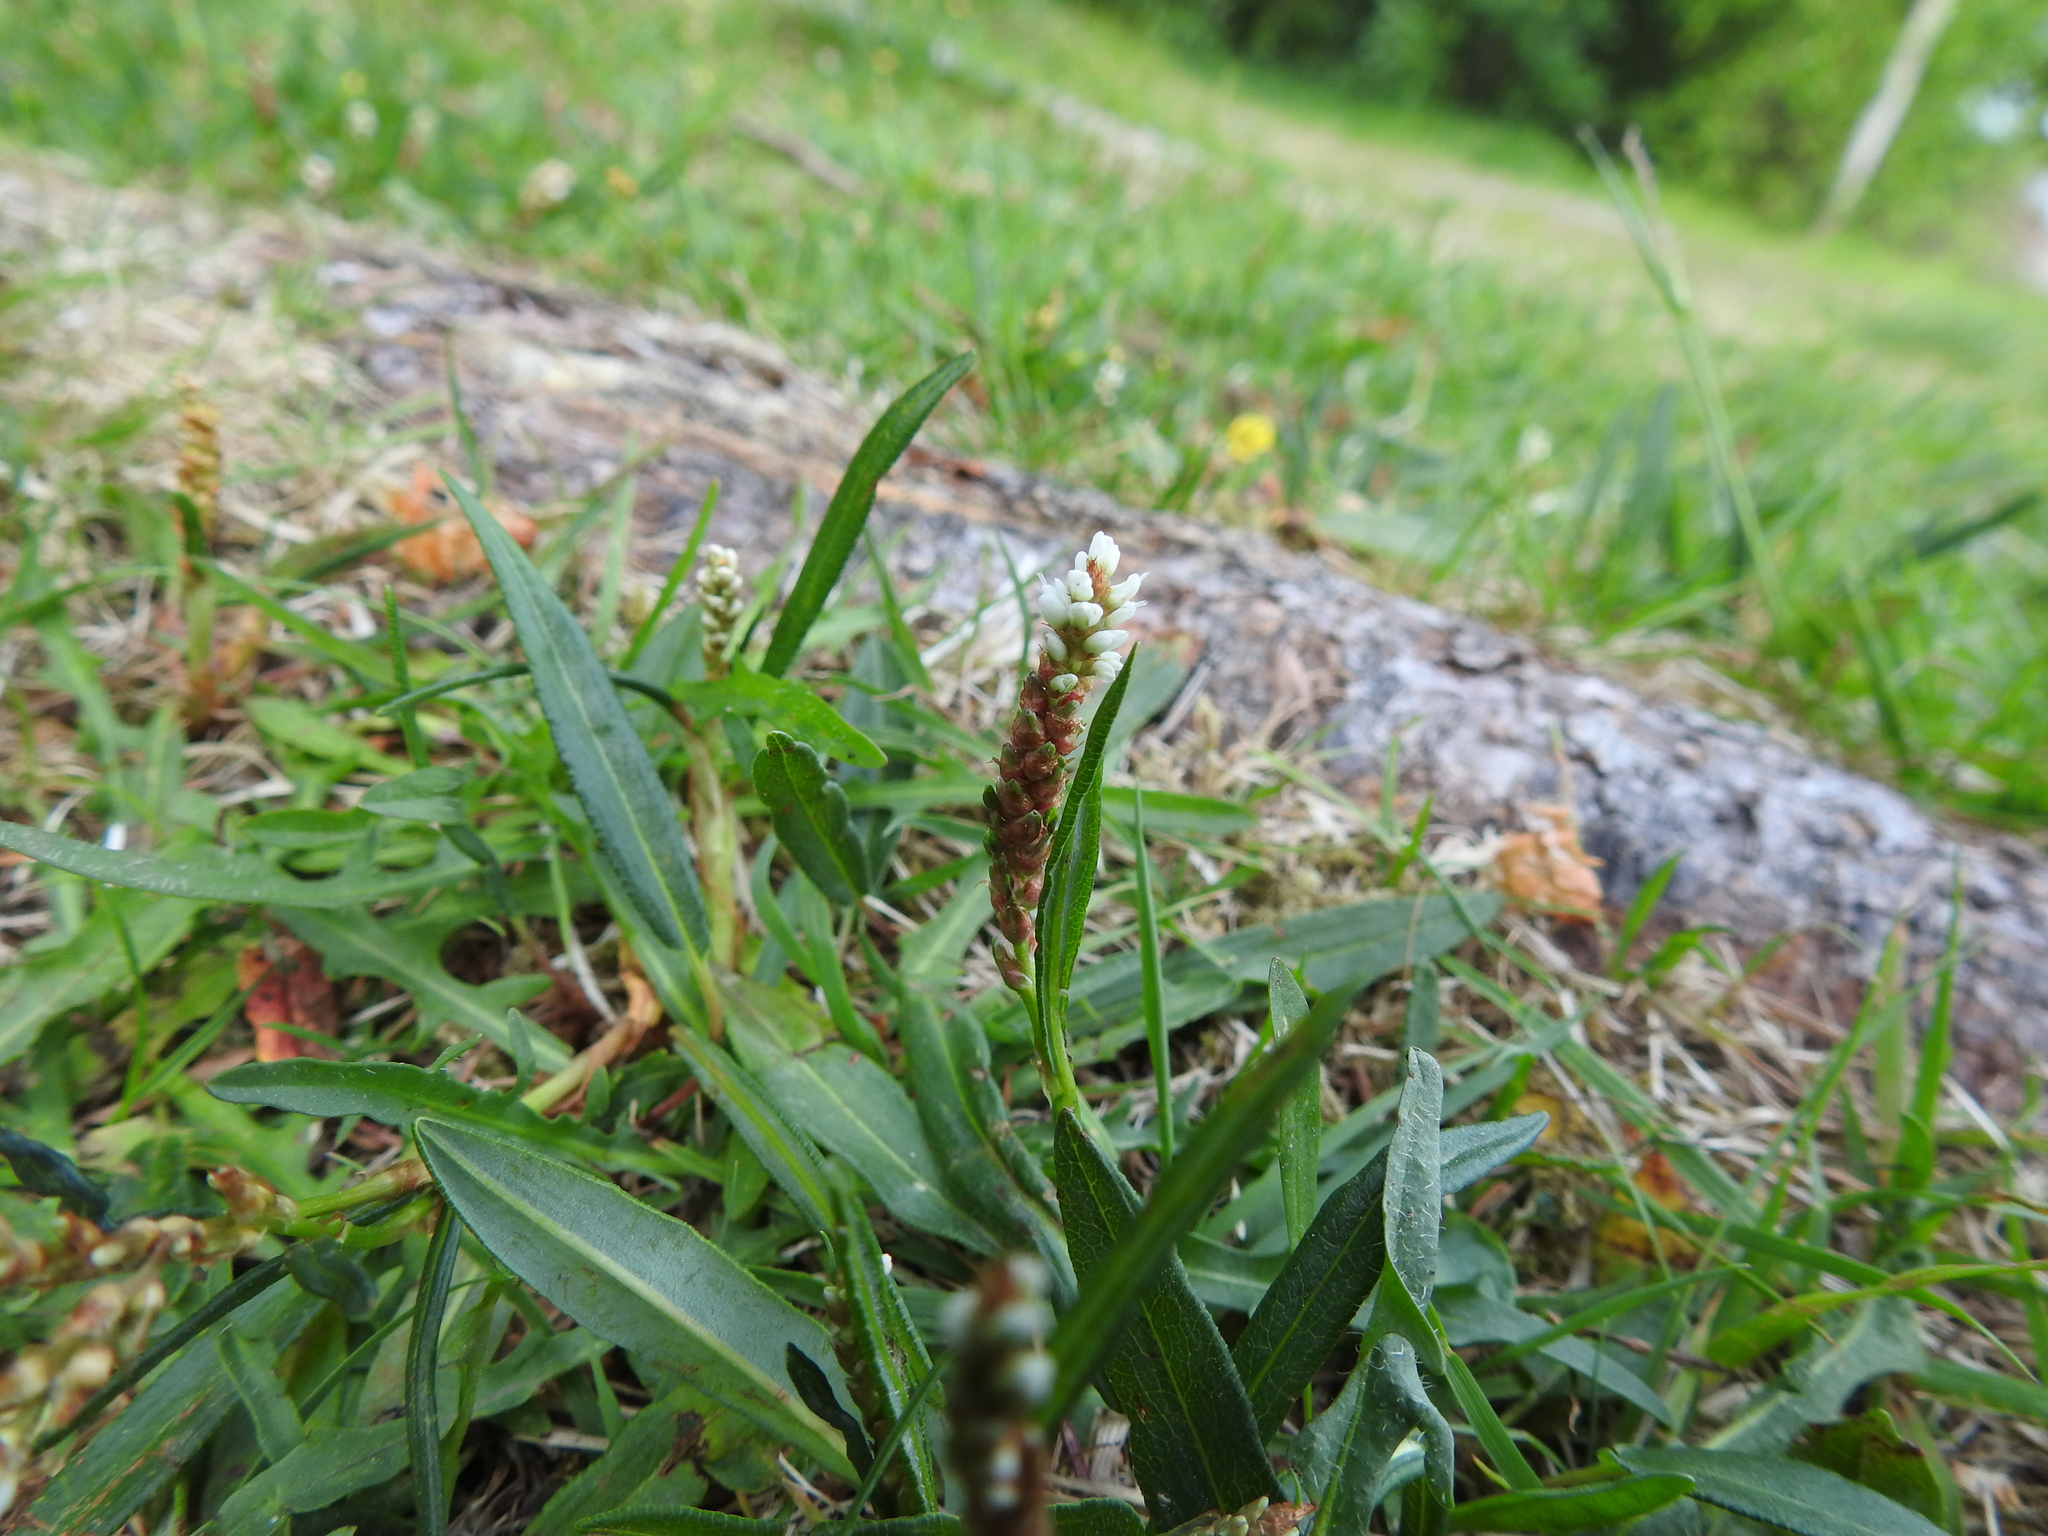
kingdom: Plantae
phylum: Tracheophyta
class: Magnoliopsida
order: Caryophyllales
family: Polygonaceae
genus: Bistorta
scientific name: Bistorta vivipara
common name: Alpine bistort
